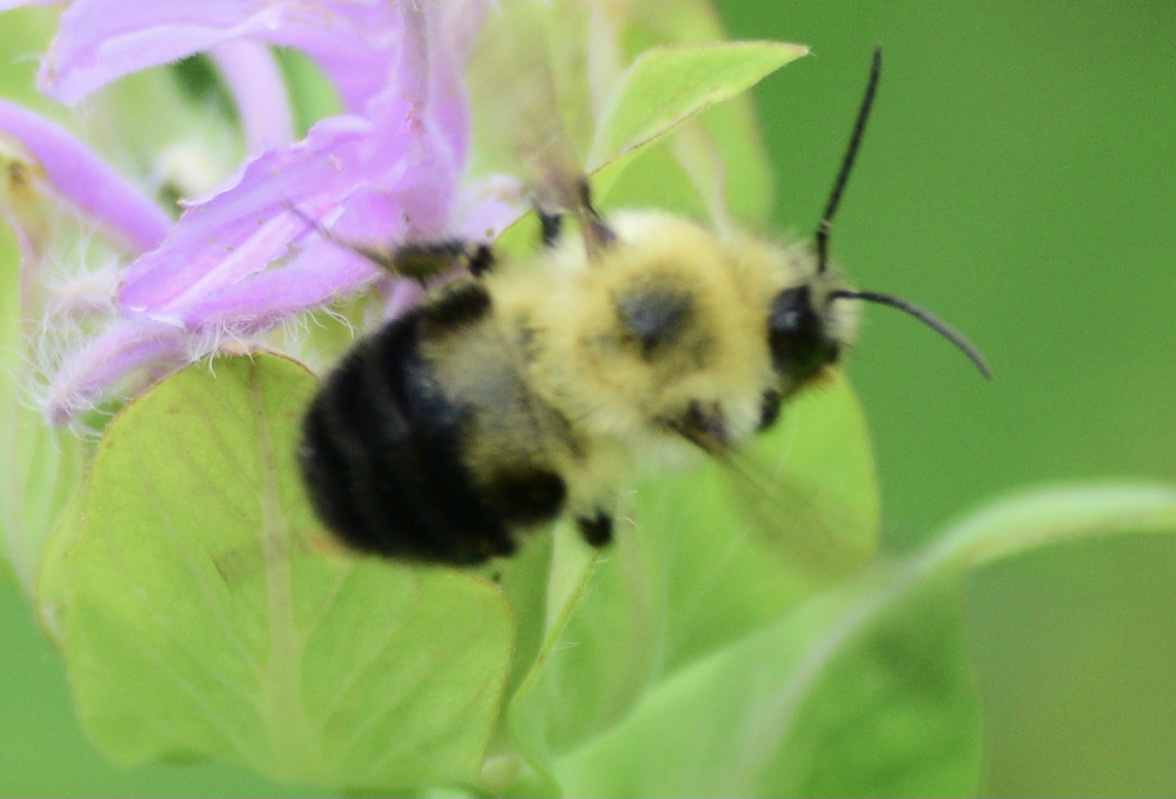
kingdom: Animalia
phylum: Arthropoda
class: Insecta
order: Hymenoptera
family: Apidae
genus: Bombus
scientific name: Bombus bimaculatus
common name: Two-spotted bumble bee
